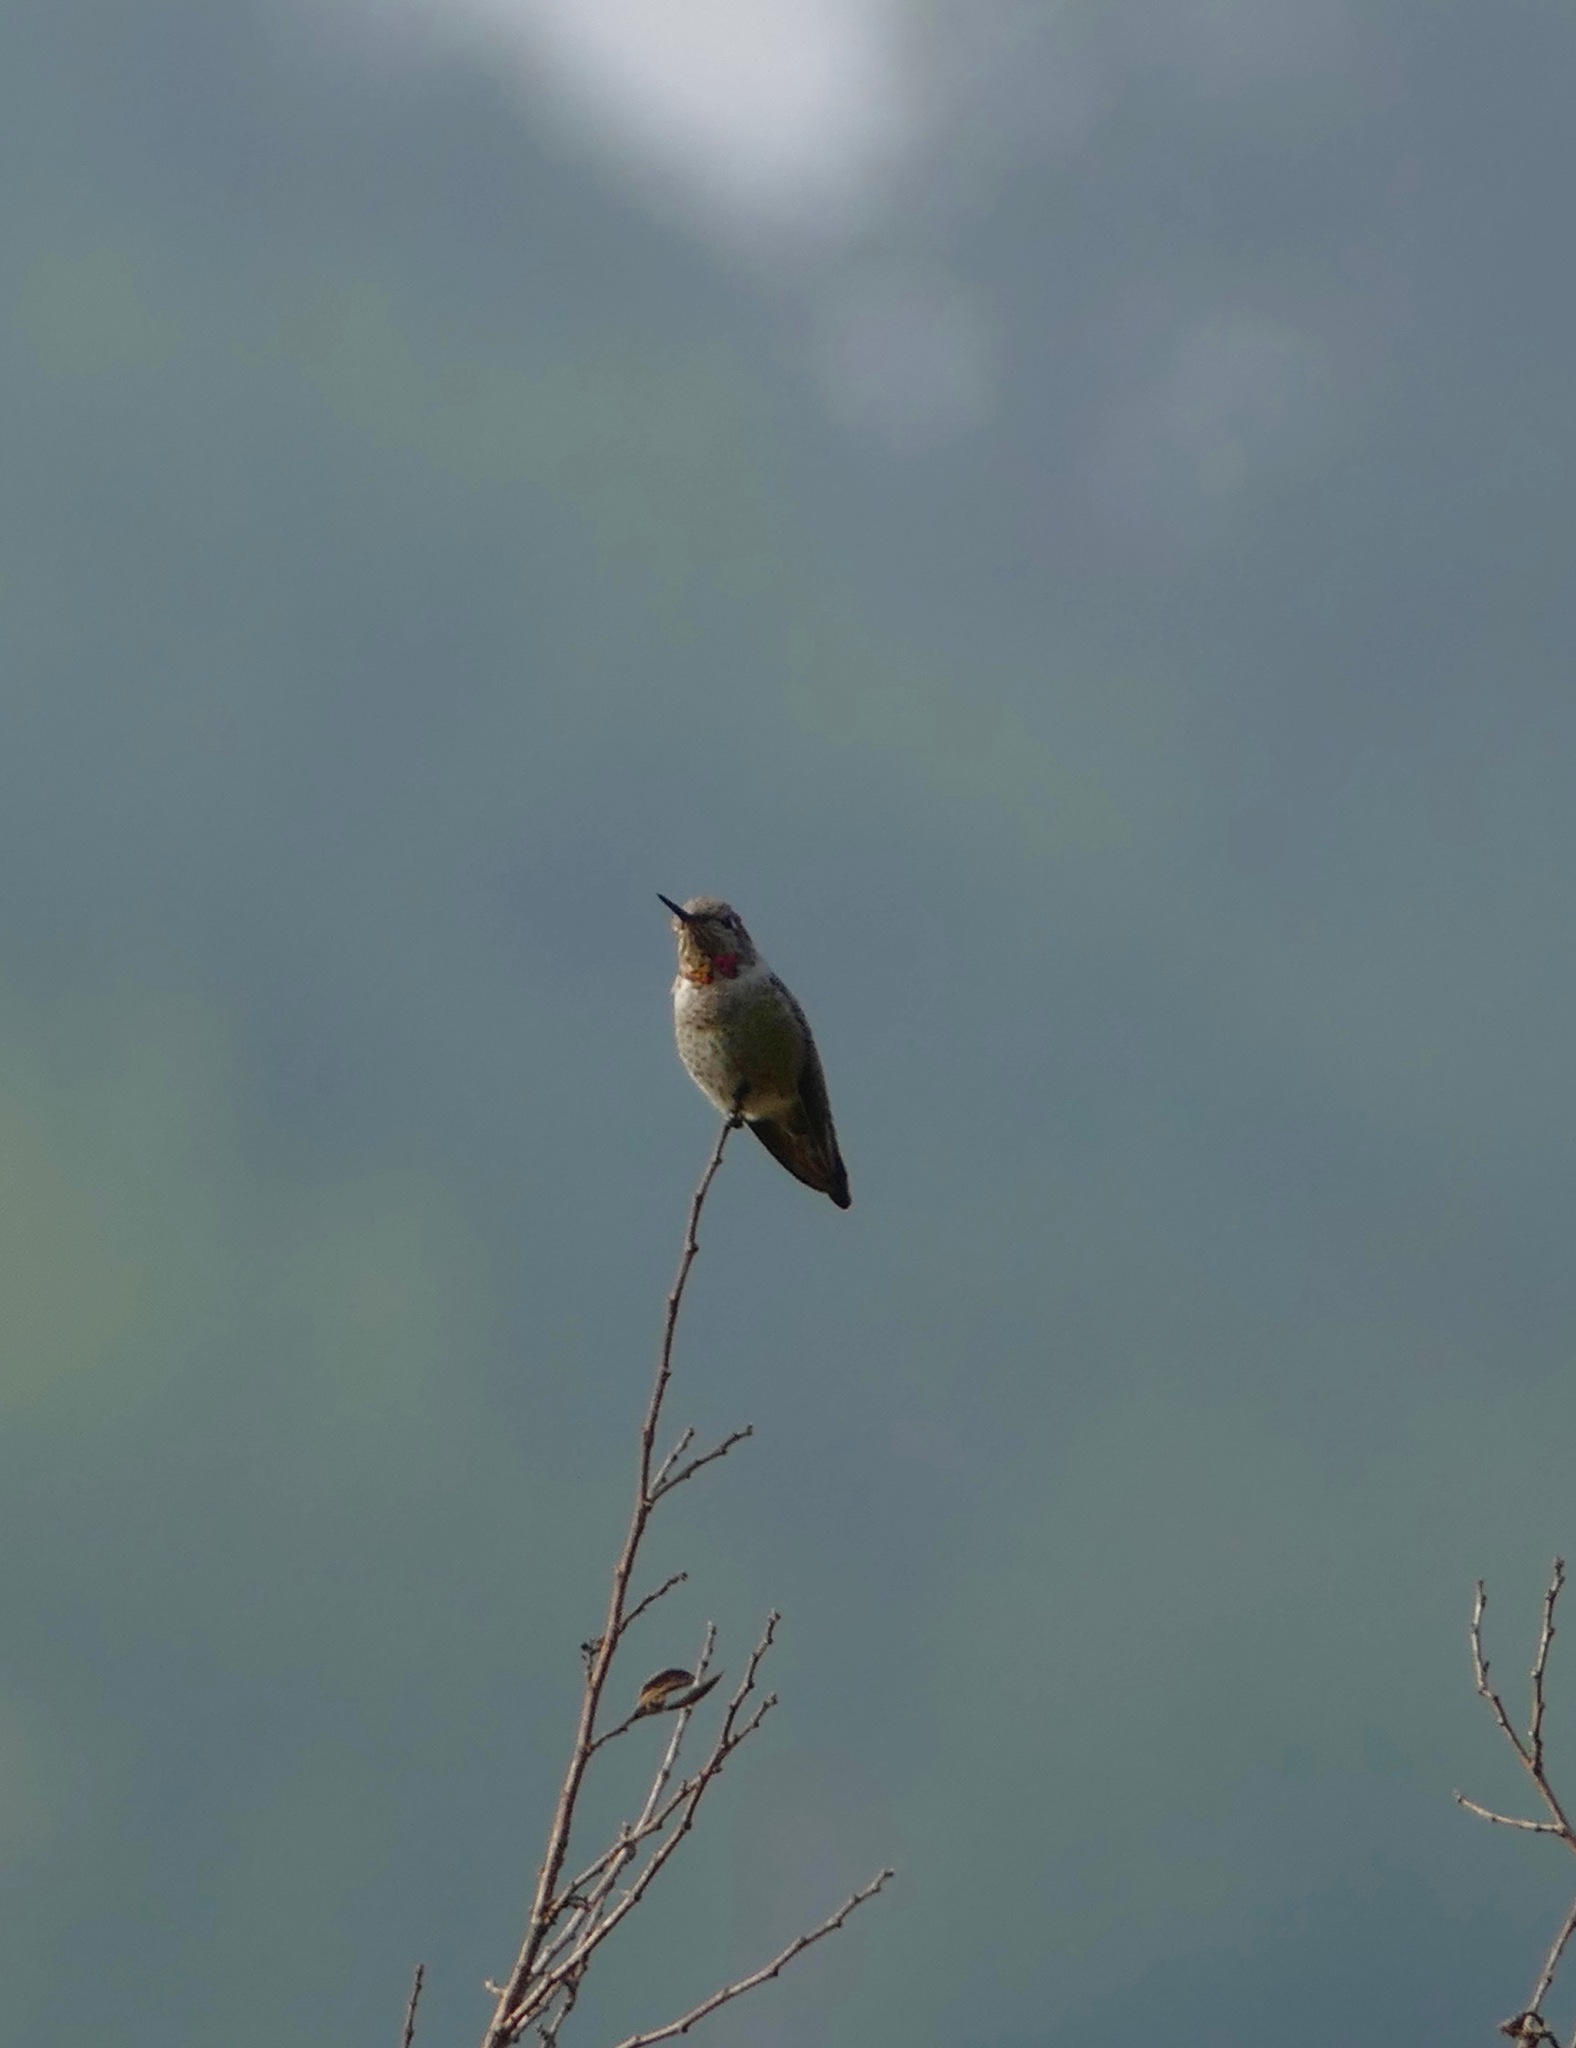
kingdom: Animalia
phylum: Chordata
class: Aves
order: Apodiformes
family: Trochilidae
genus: Calypte
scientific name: Calypte anna
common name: Anna's hummingbird
